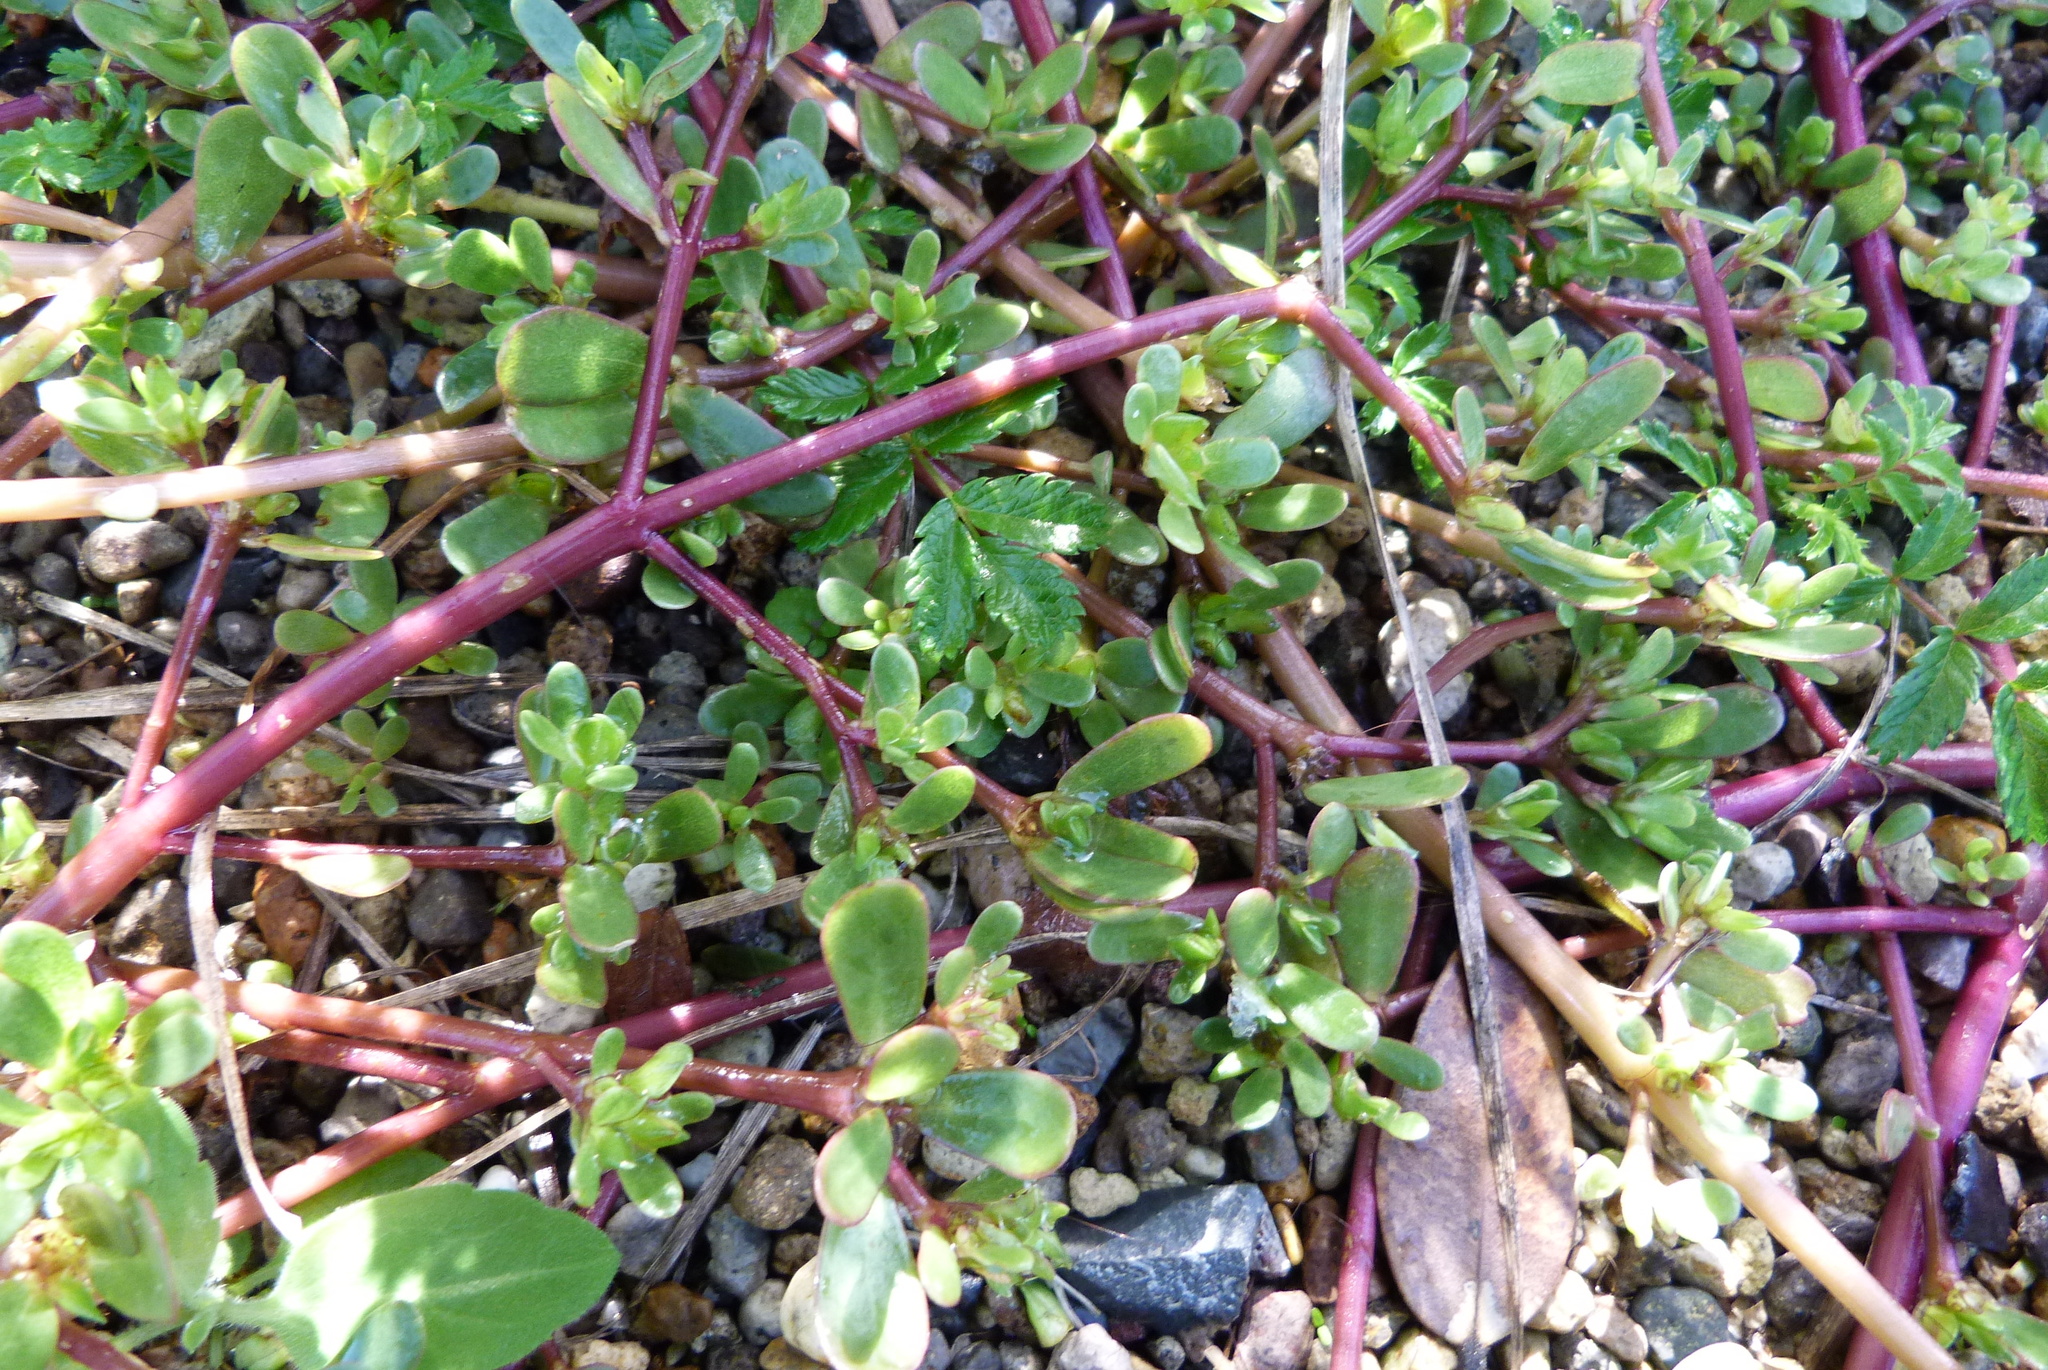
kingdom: Plantae
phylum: Tracheophyta
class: Magnoliopsida
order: Caryophyllales
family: Portulacaceae
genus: Portulaca
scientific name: Portulaca oleracea
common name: Common purslane
